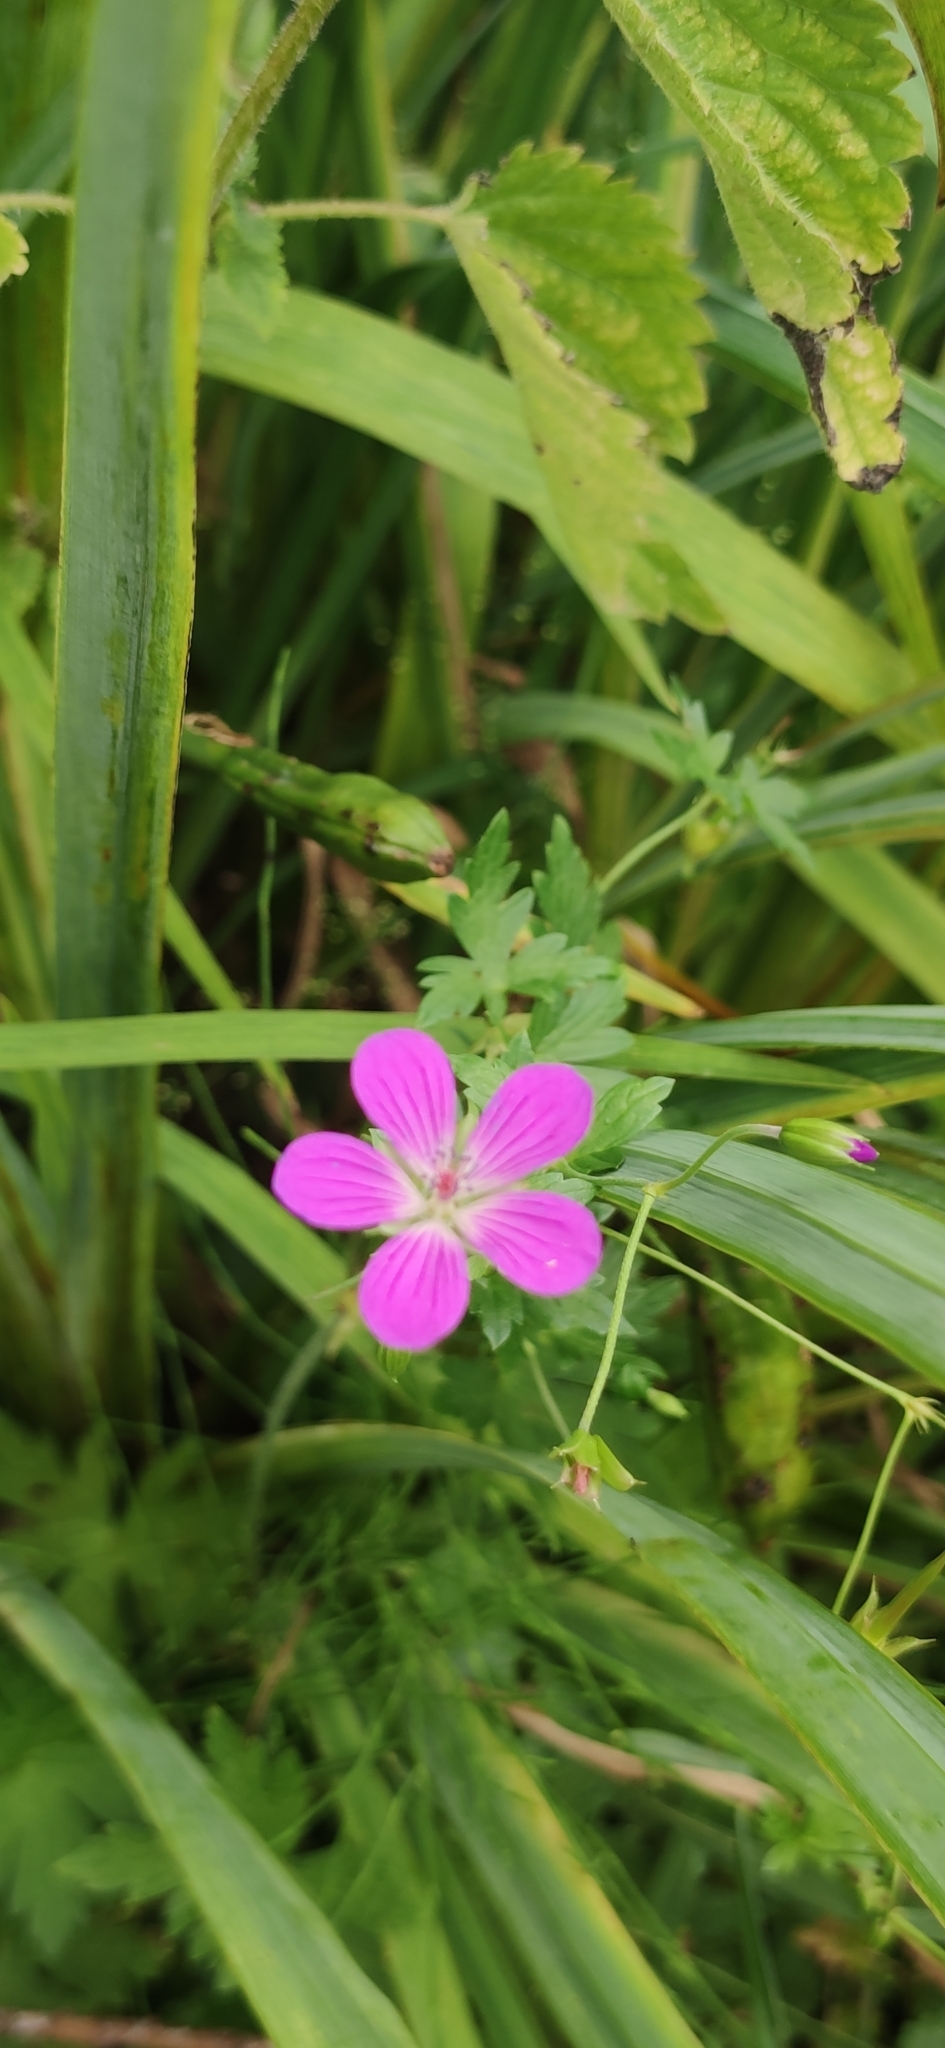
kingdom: Plantae
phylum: Tracheophyta
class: Magnoliopsida
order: Geraniales
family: Geraniaceae
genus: Geranium
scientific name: Geranium palustre
